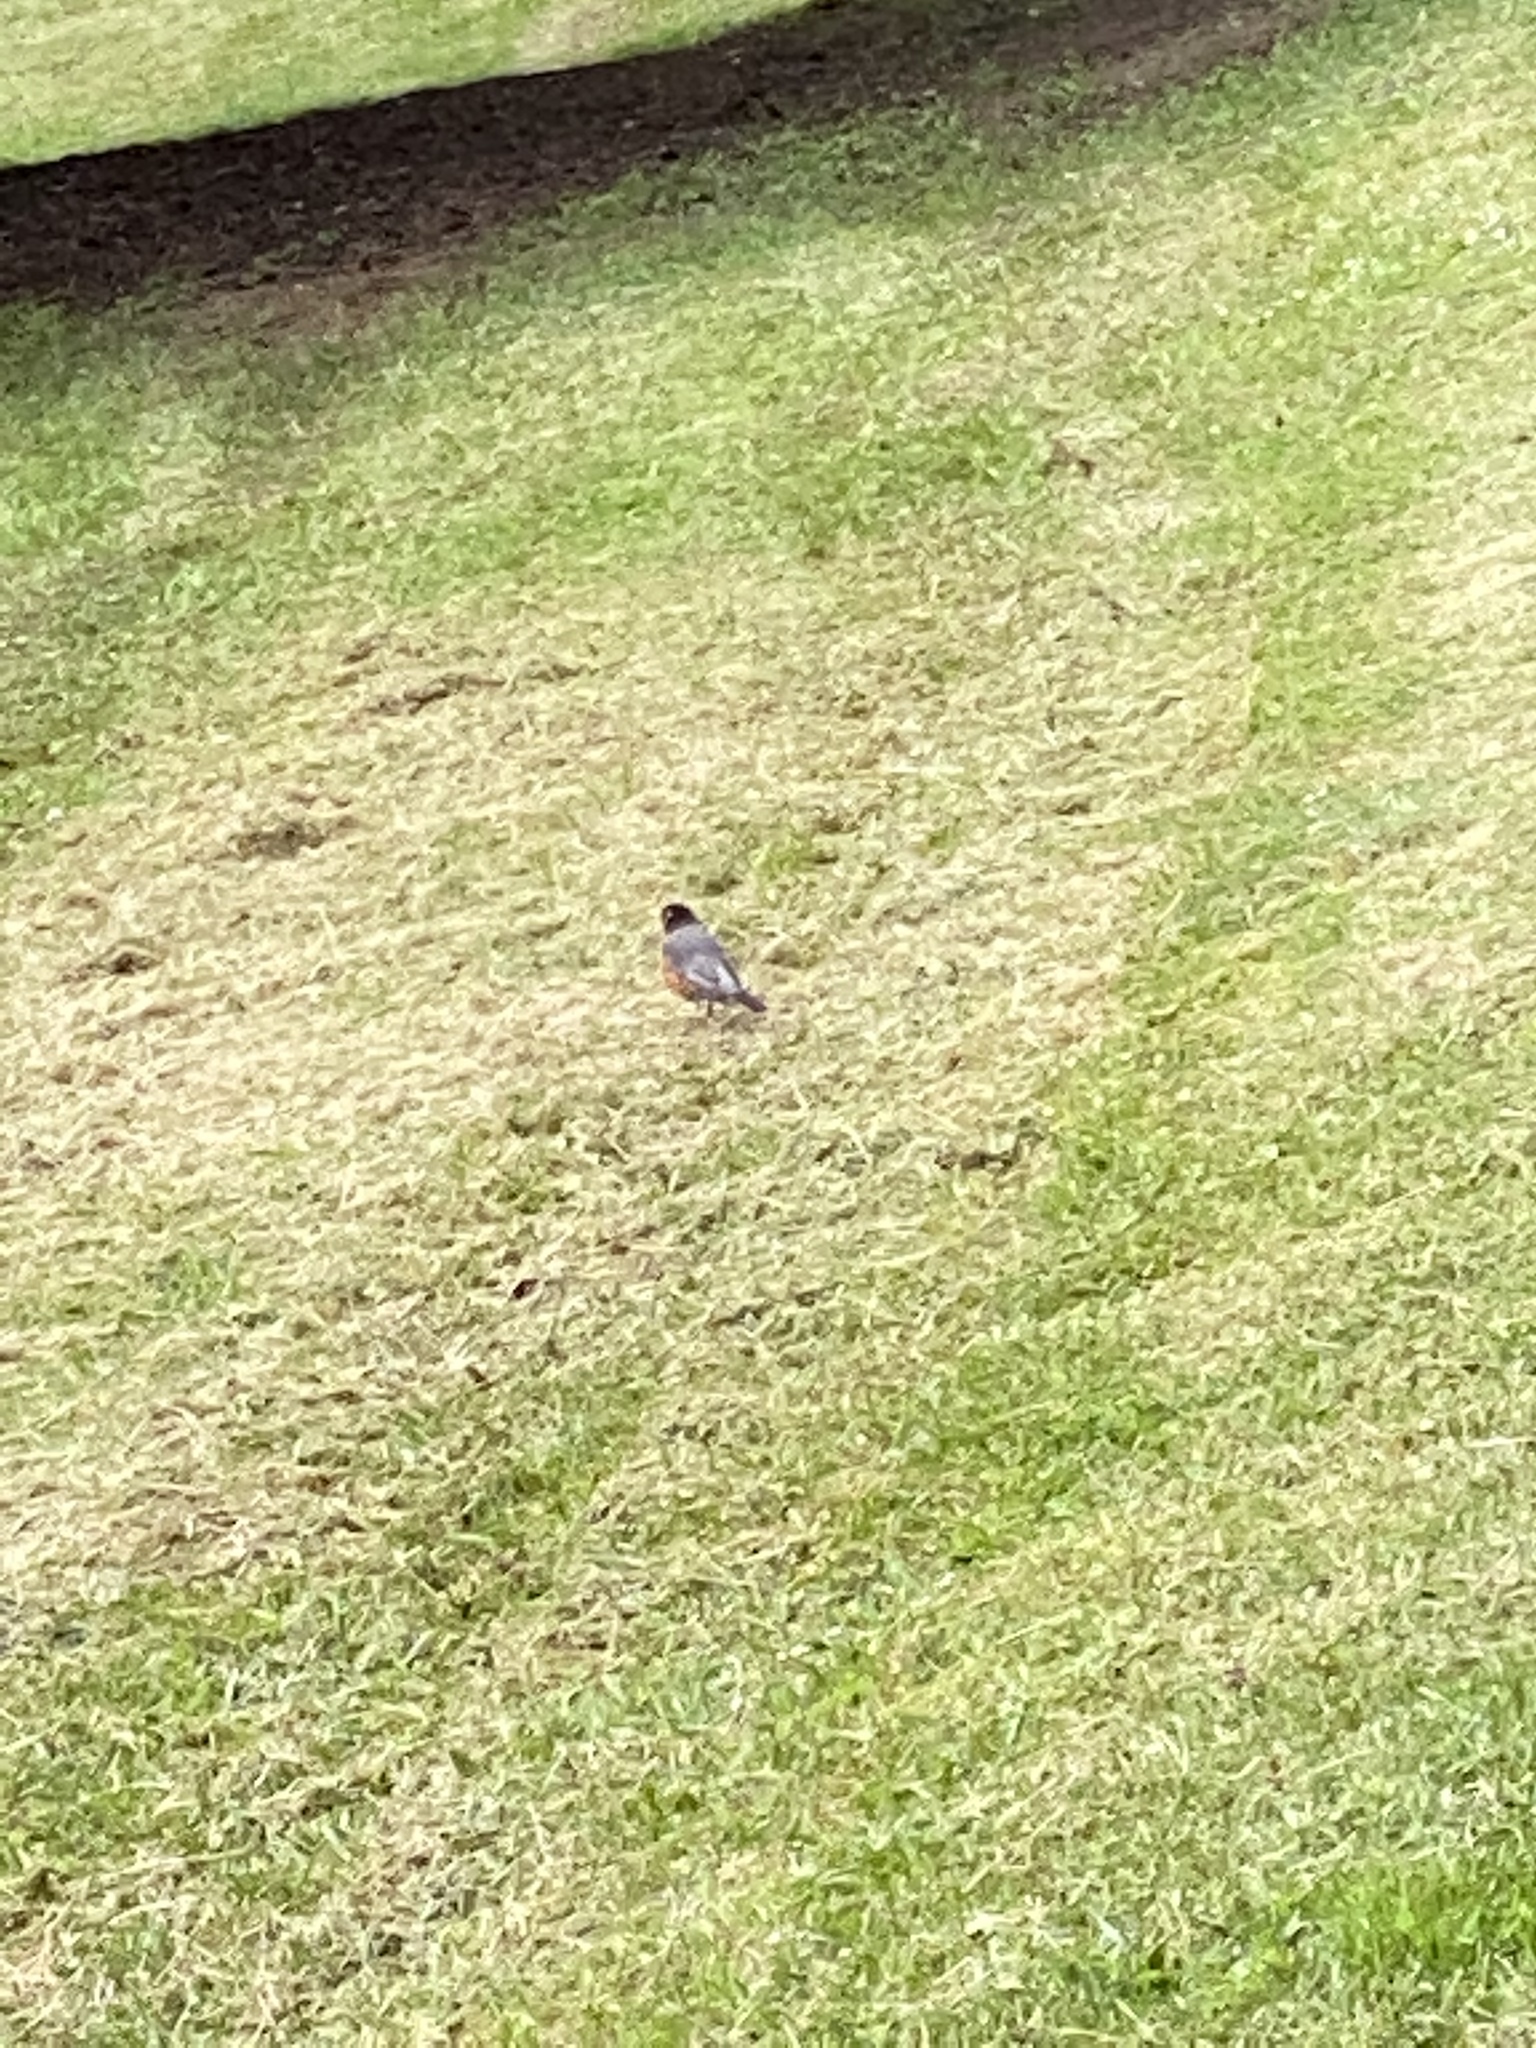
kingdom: Animalia
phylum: Chordata
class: Aves
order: Passeriformes
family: Turdidae
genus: Turdus
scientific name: Turdus migratorius
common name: American robin
